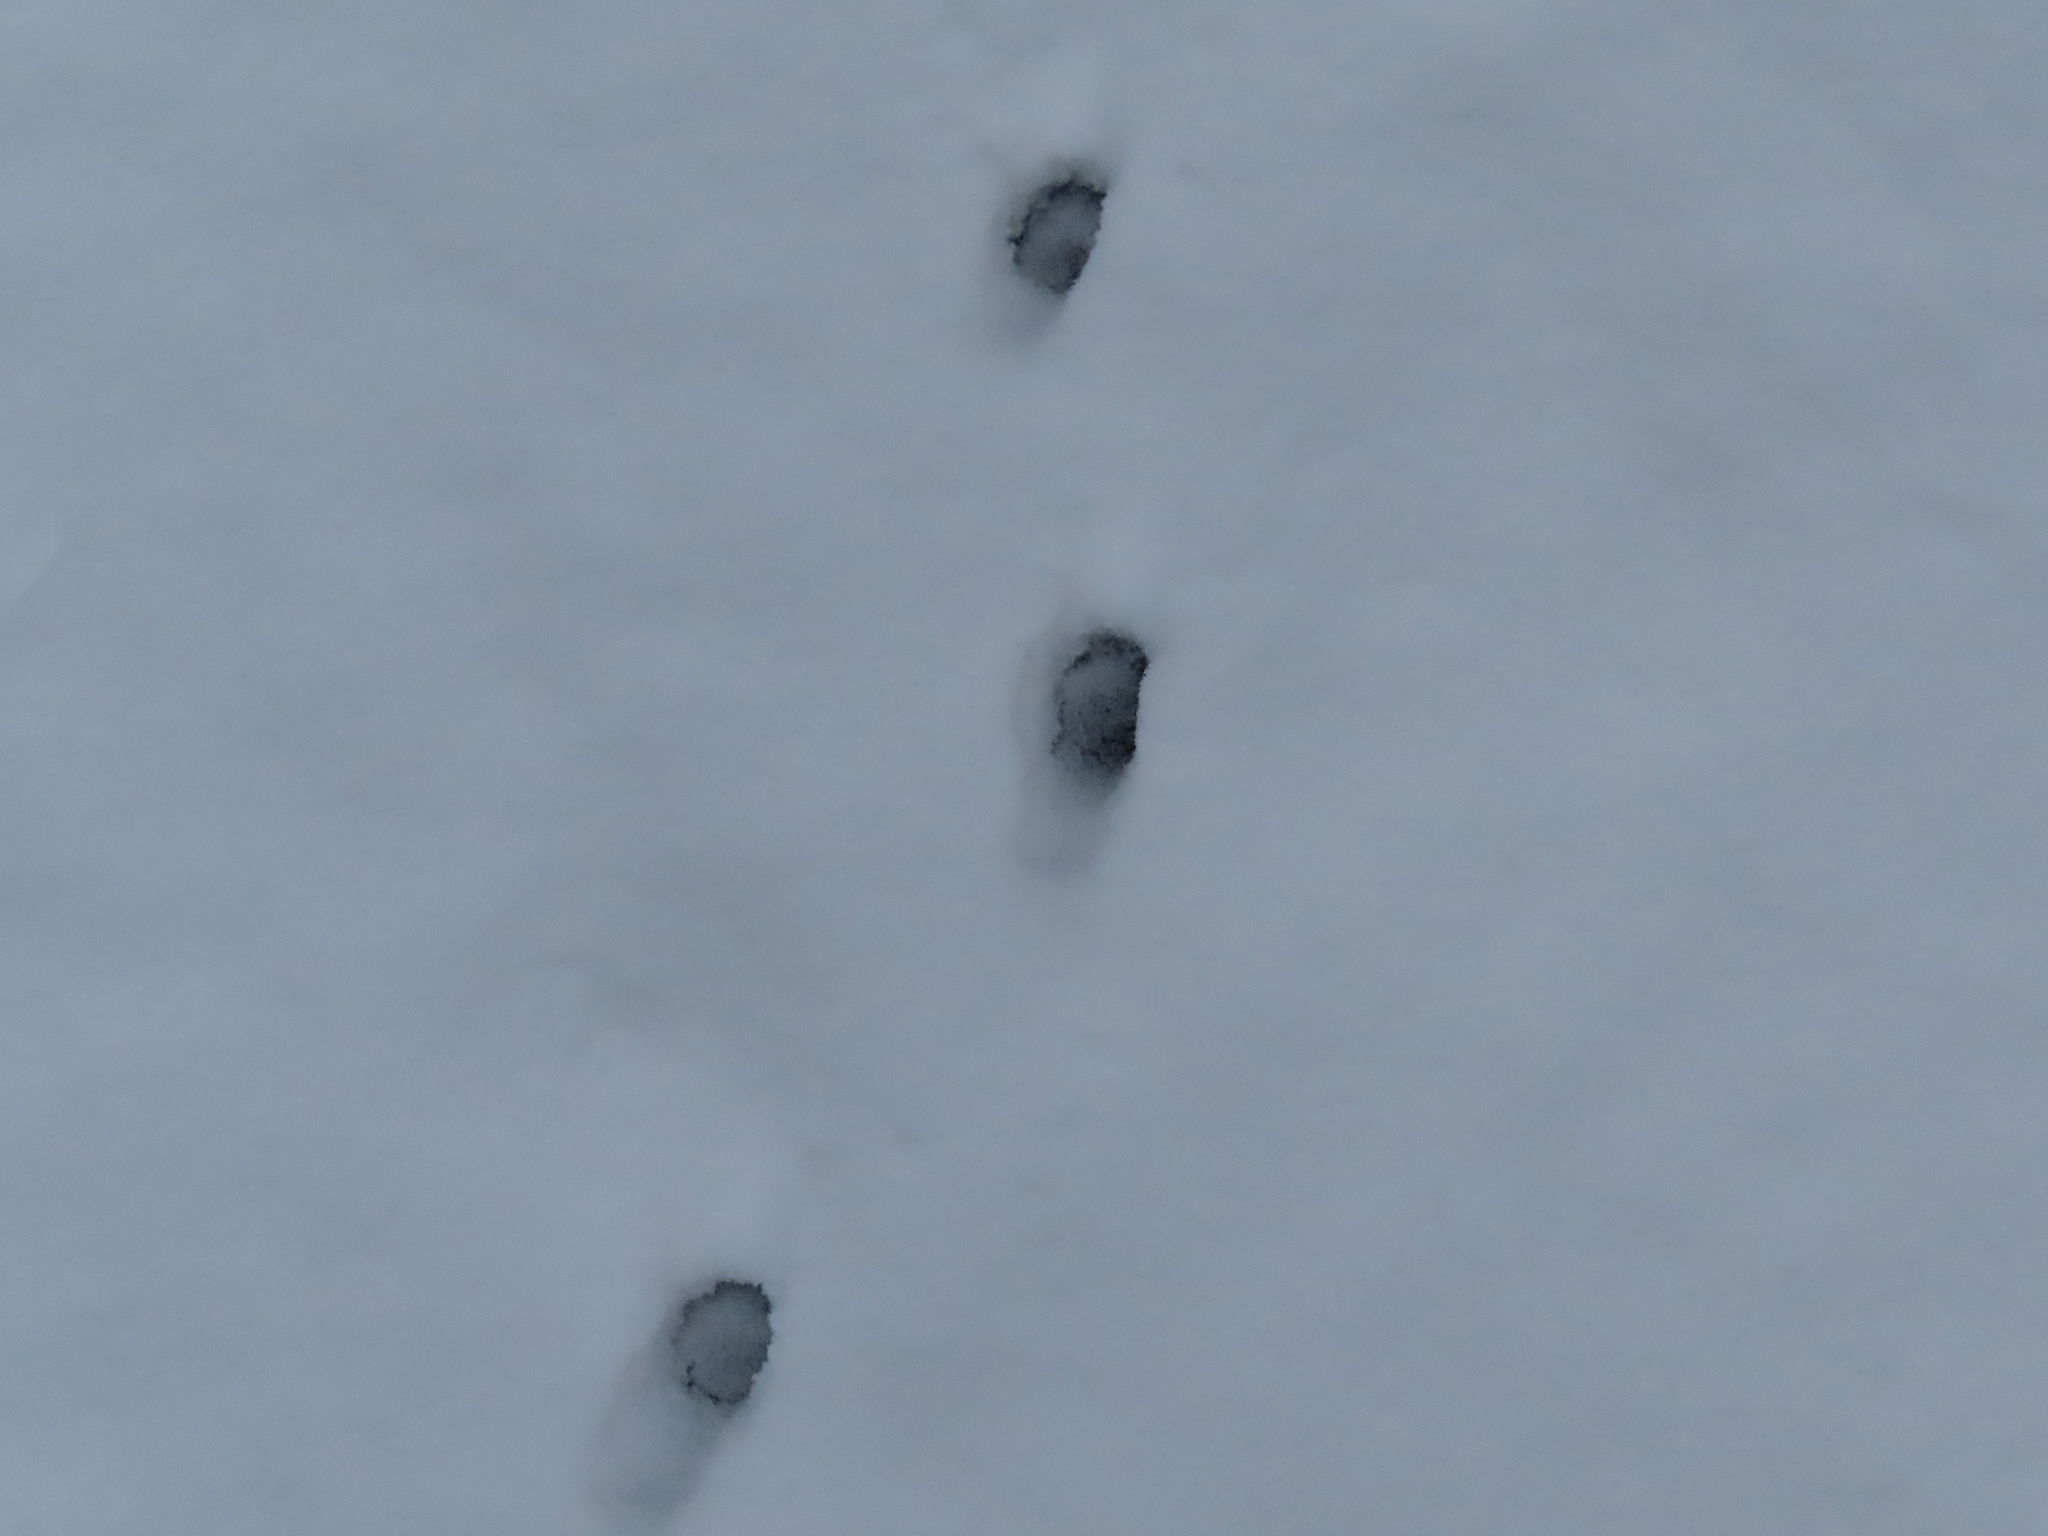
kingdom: Animalia
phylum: Chordata
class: Mammalia
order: Carnivora
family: Felidae
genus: Felis
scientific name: Felis catus
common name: Domestic cat
